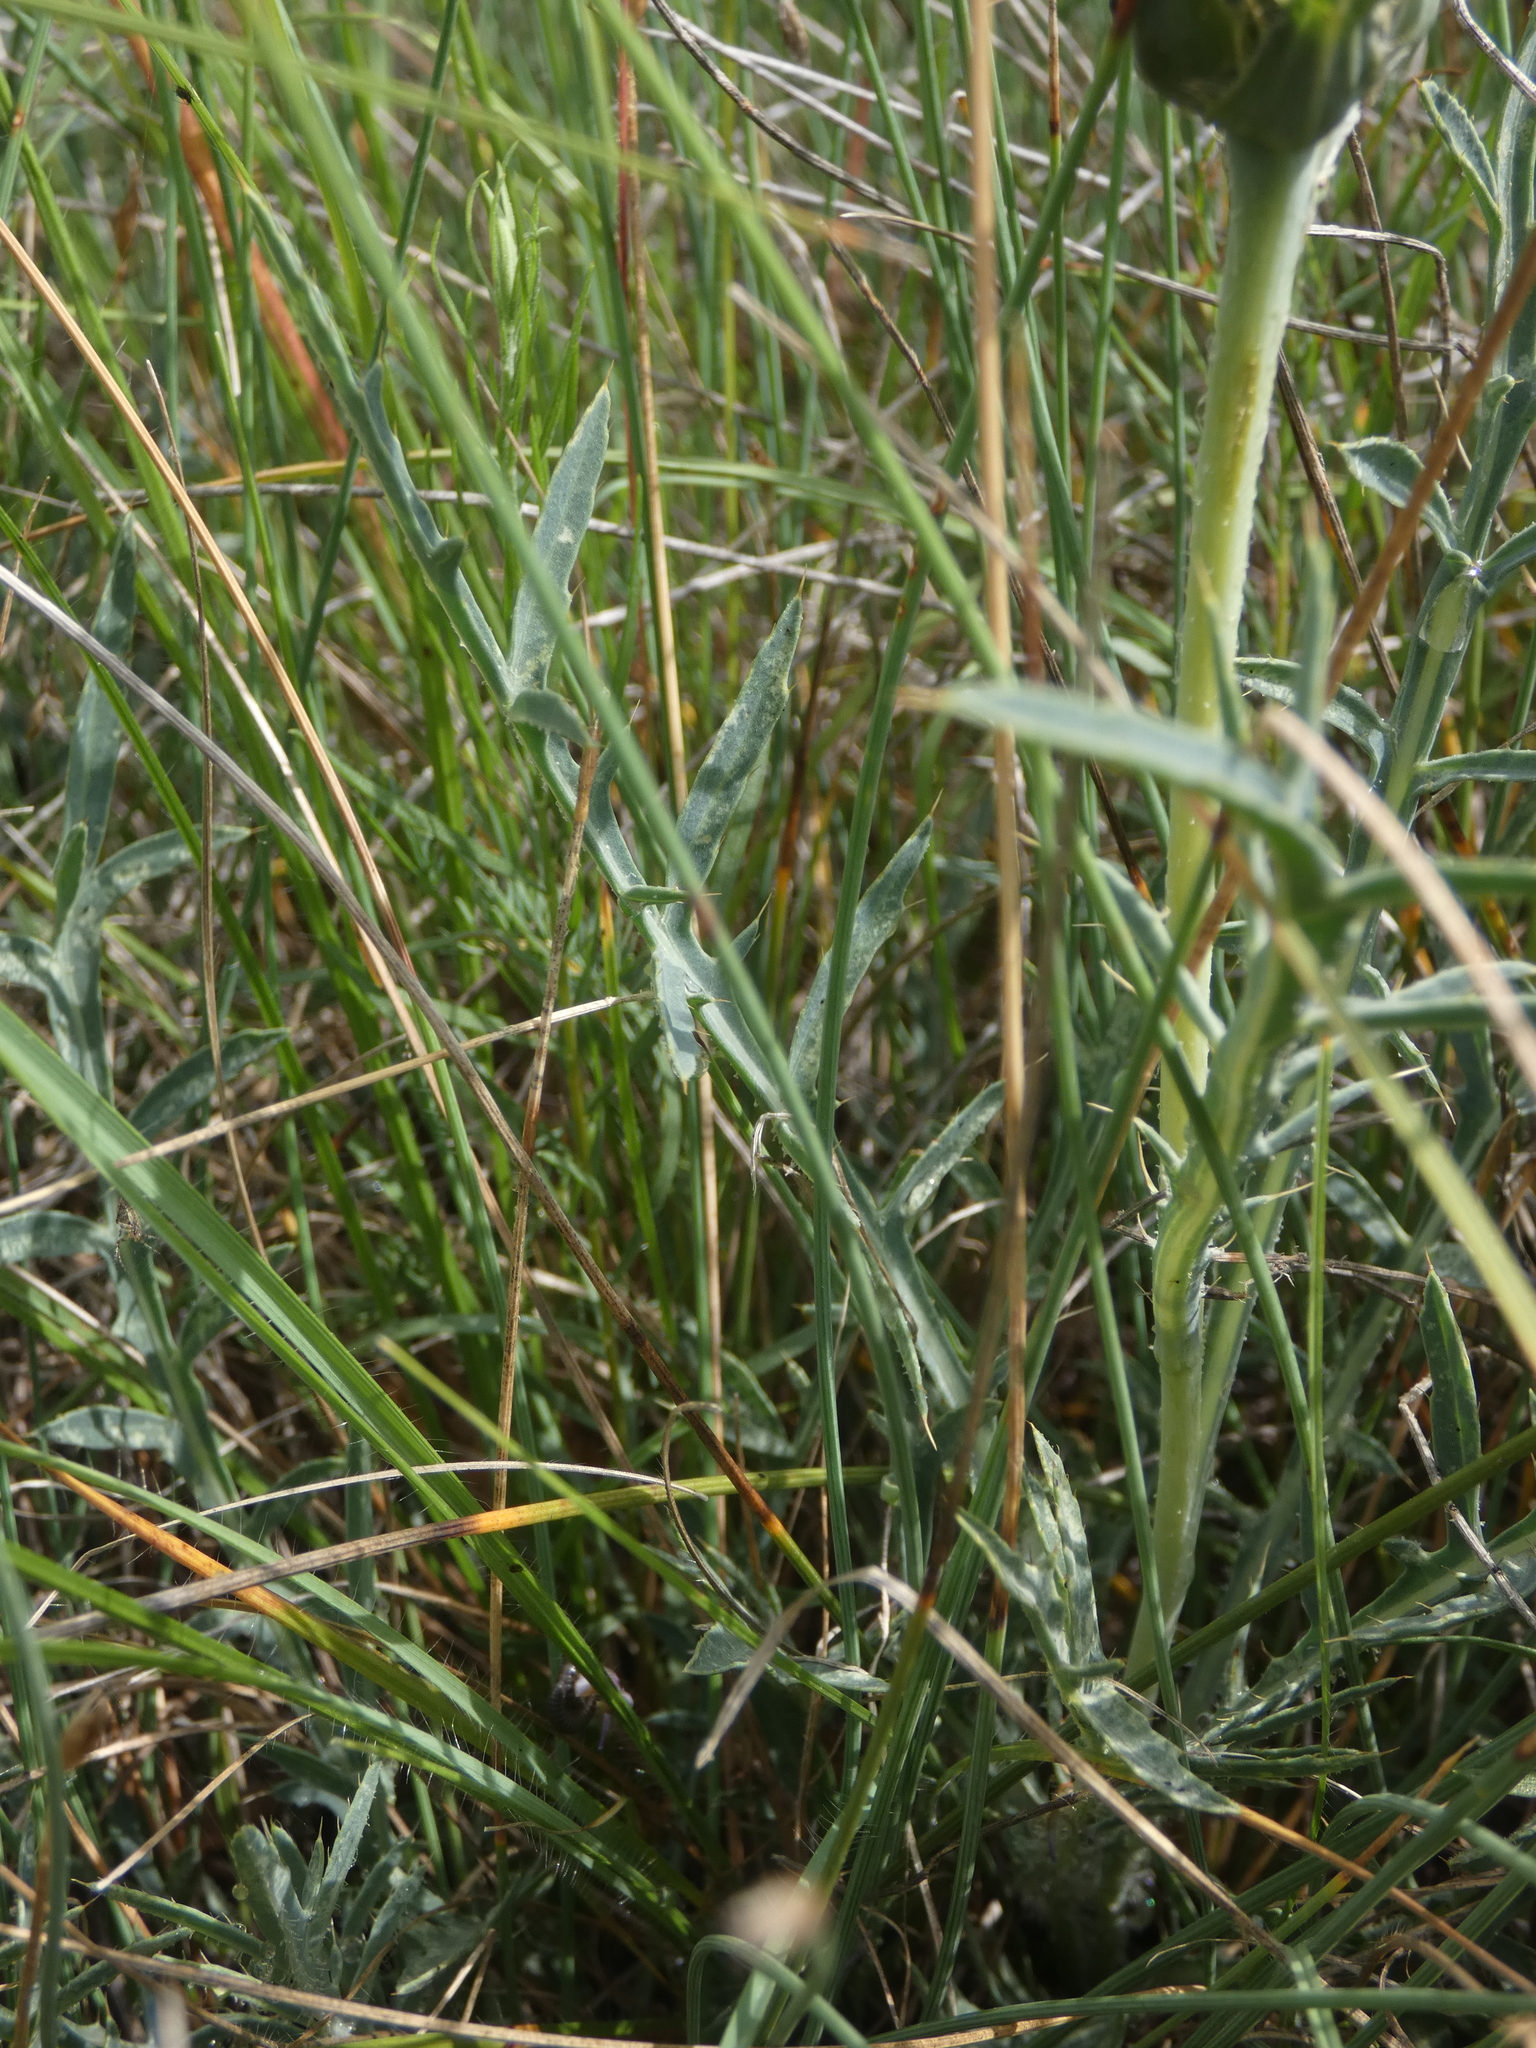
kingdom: Plantae
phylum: Tracheophyta
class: Magnoliopsida
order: Asterales
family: Asteraceae
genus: Carduncellus
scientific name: Carduncellus monspelliensium
